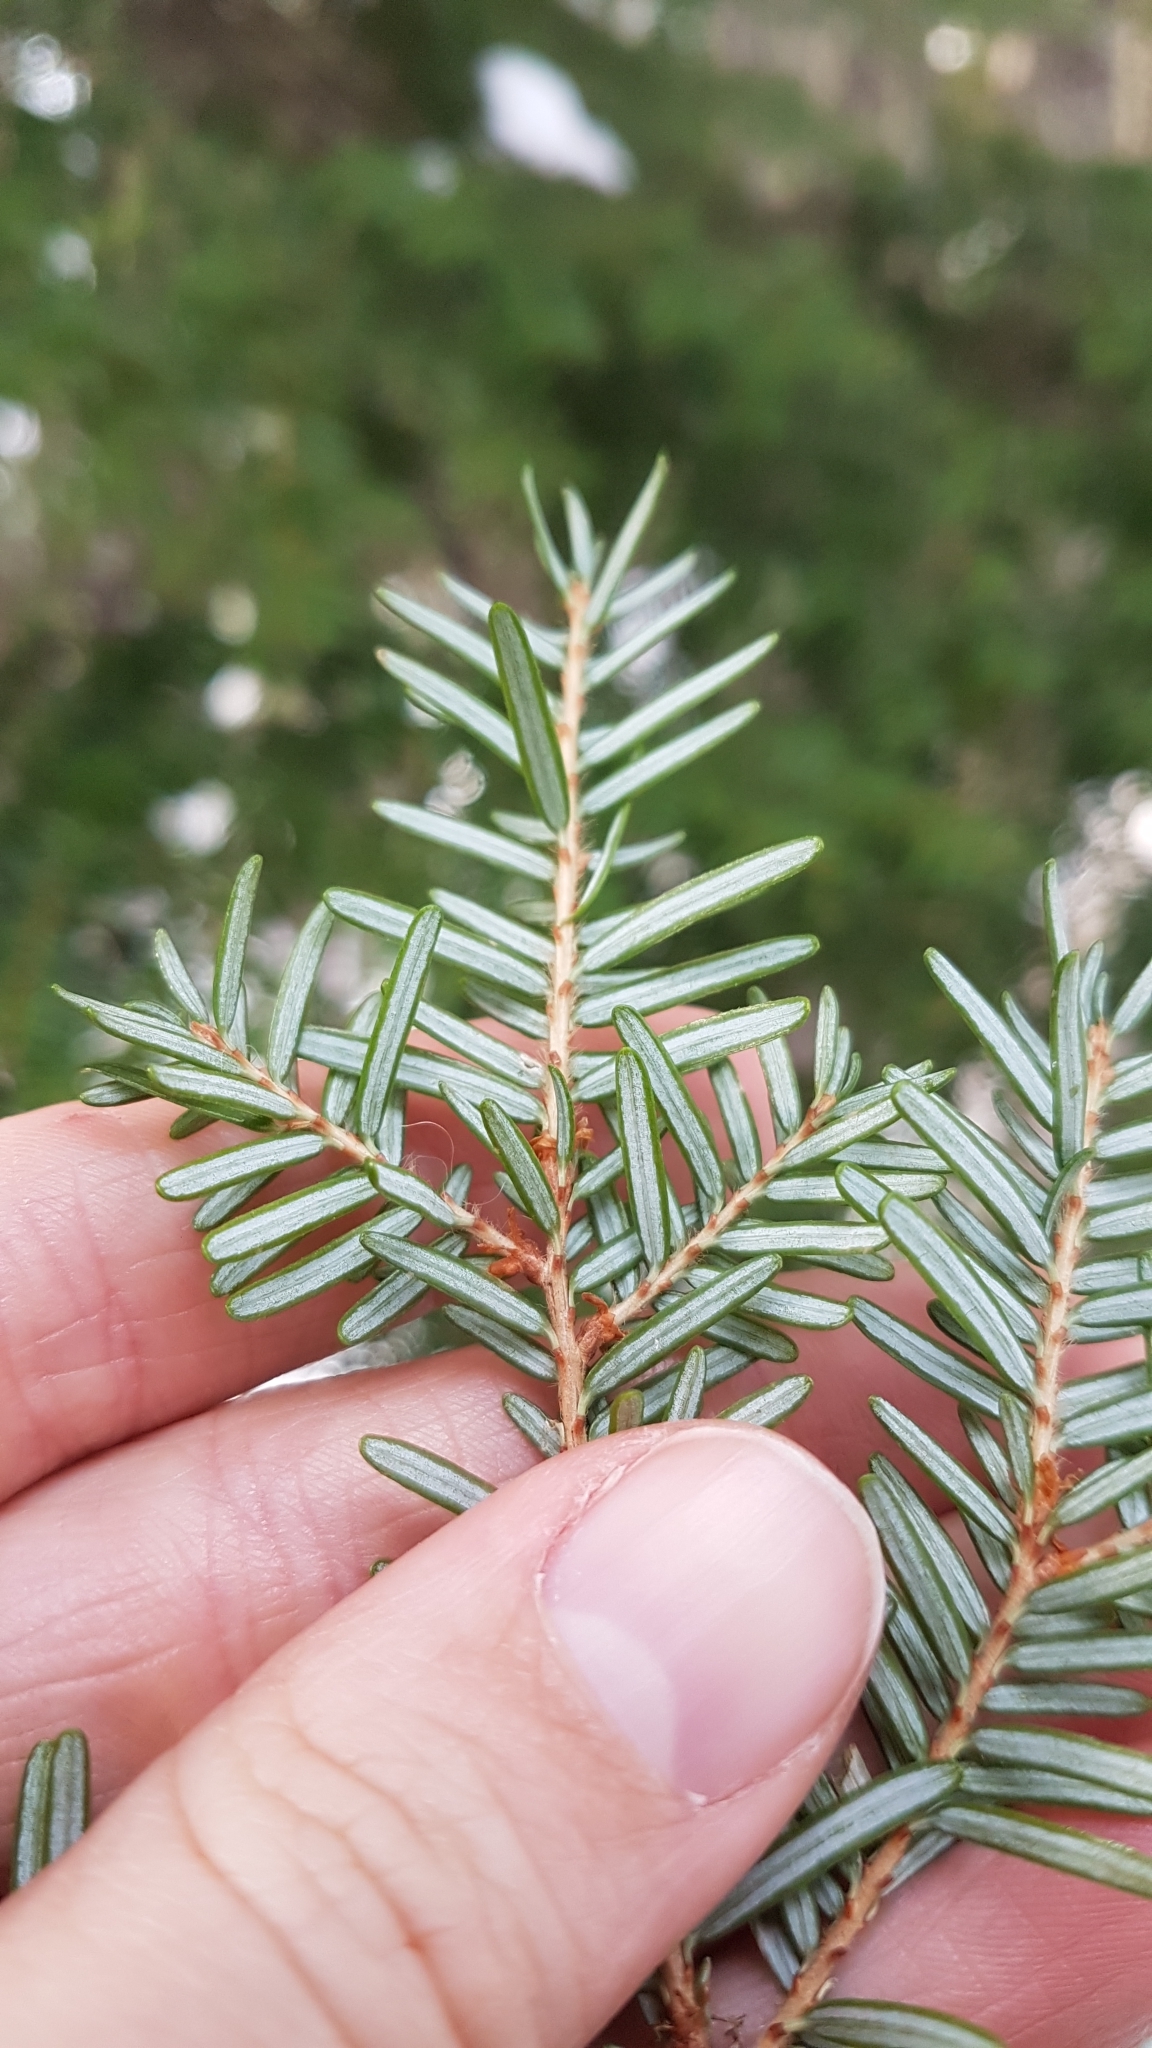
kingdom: Plantae
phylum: Tracheophyta
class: Pinopsida
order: Pinales
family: Pinaceae
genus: Tsuga
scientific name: Tsuga heterophylla
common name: Western hemlock
